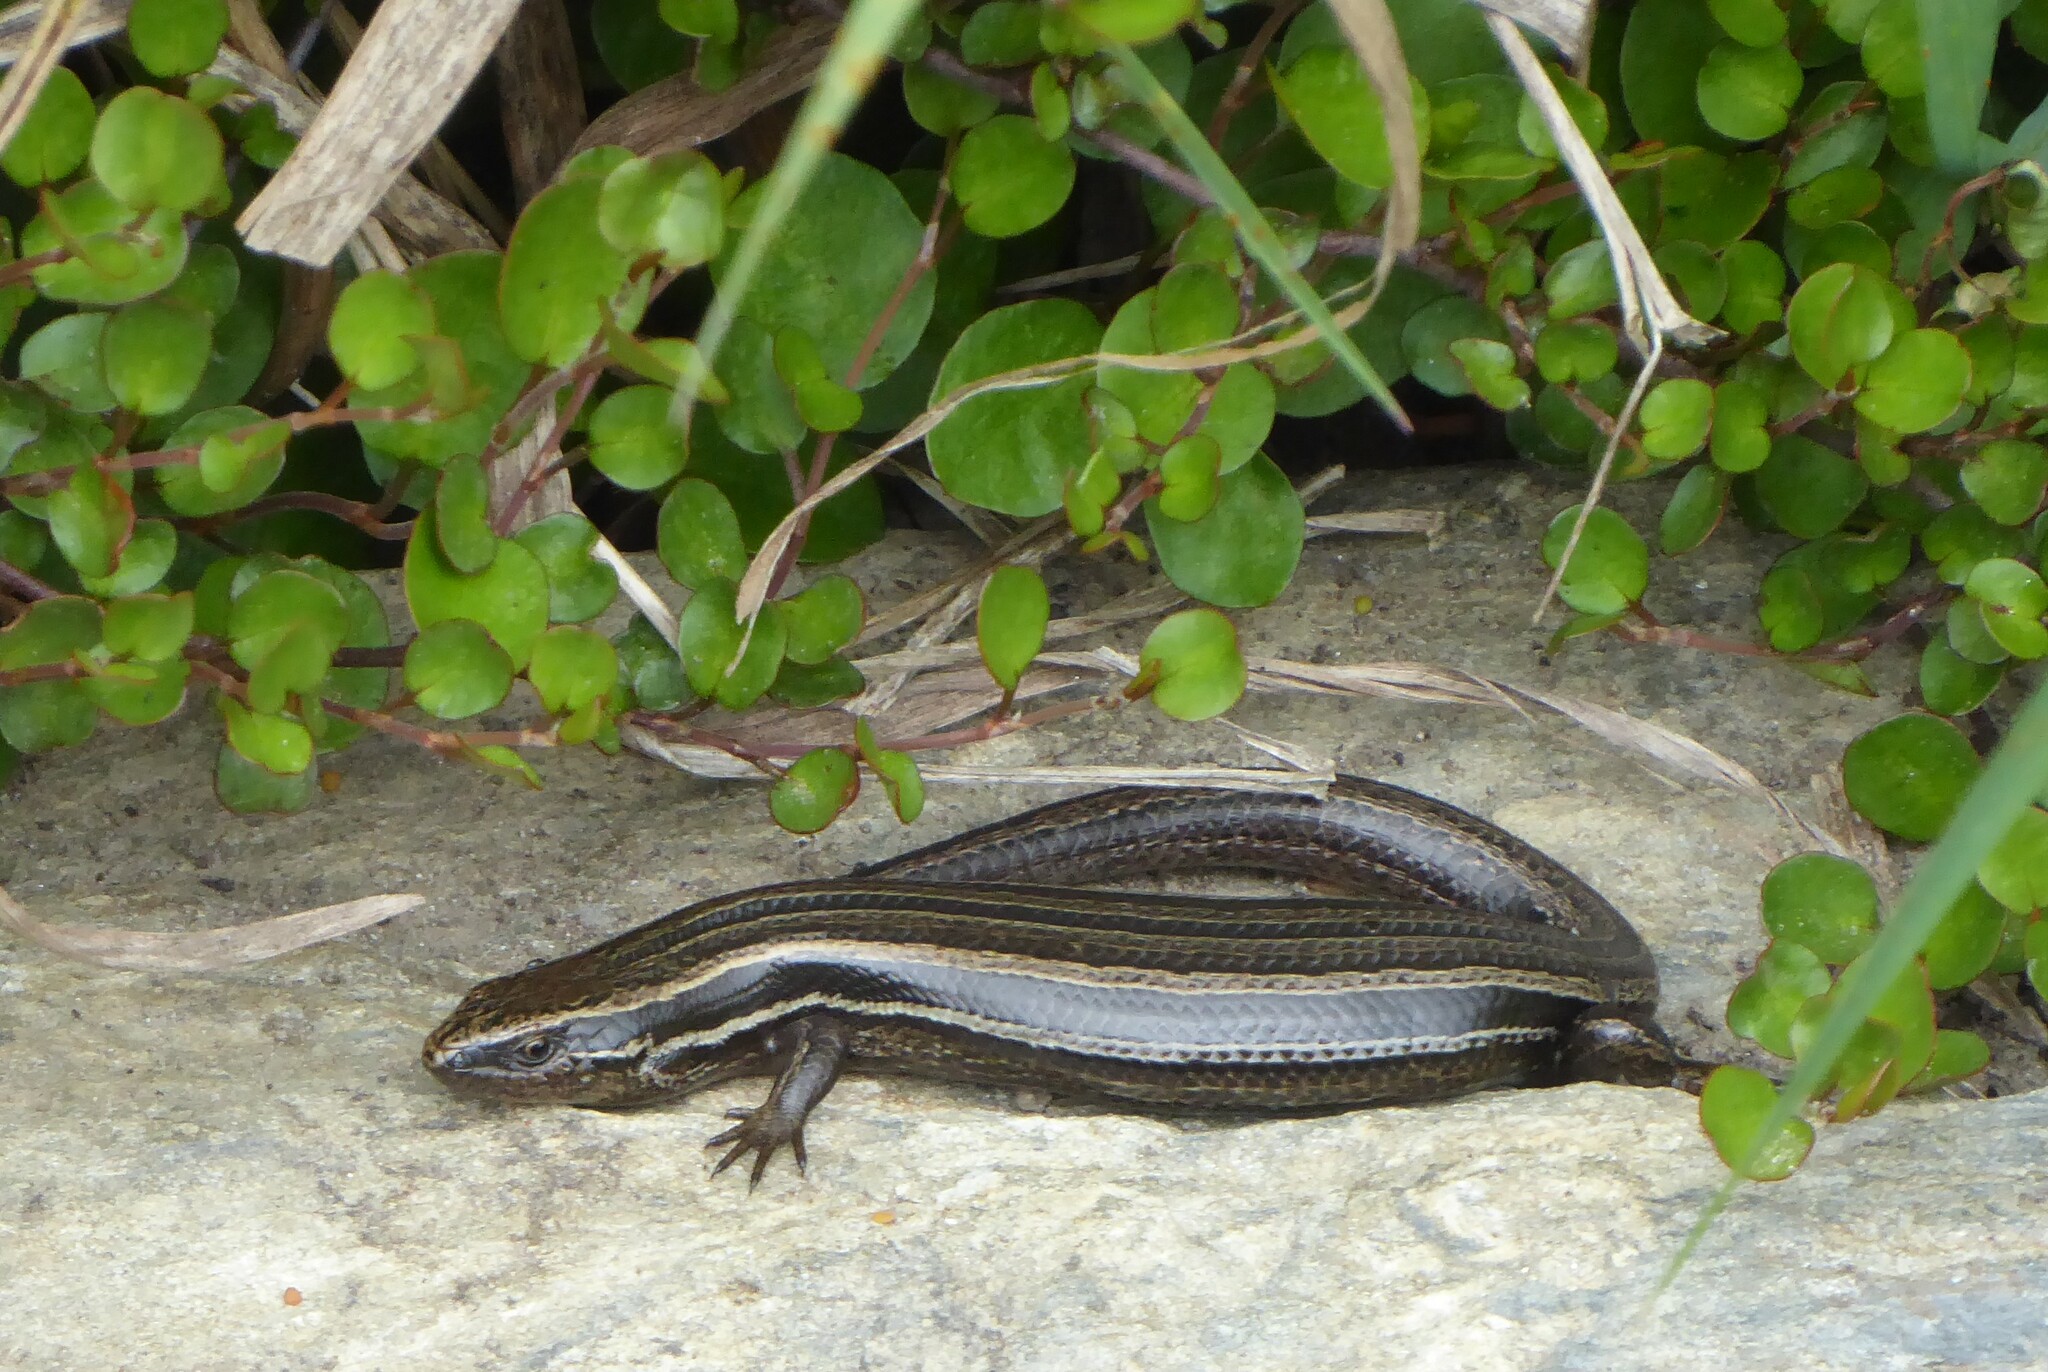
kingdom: Animalia
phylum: Chordata
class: Squamata
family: Scincidae
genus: Oligosoma
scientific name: Oligosoma polychroma
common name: Common new zealand skink
